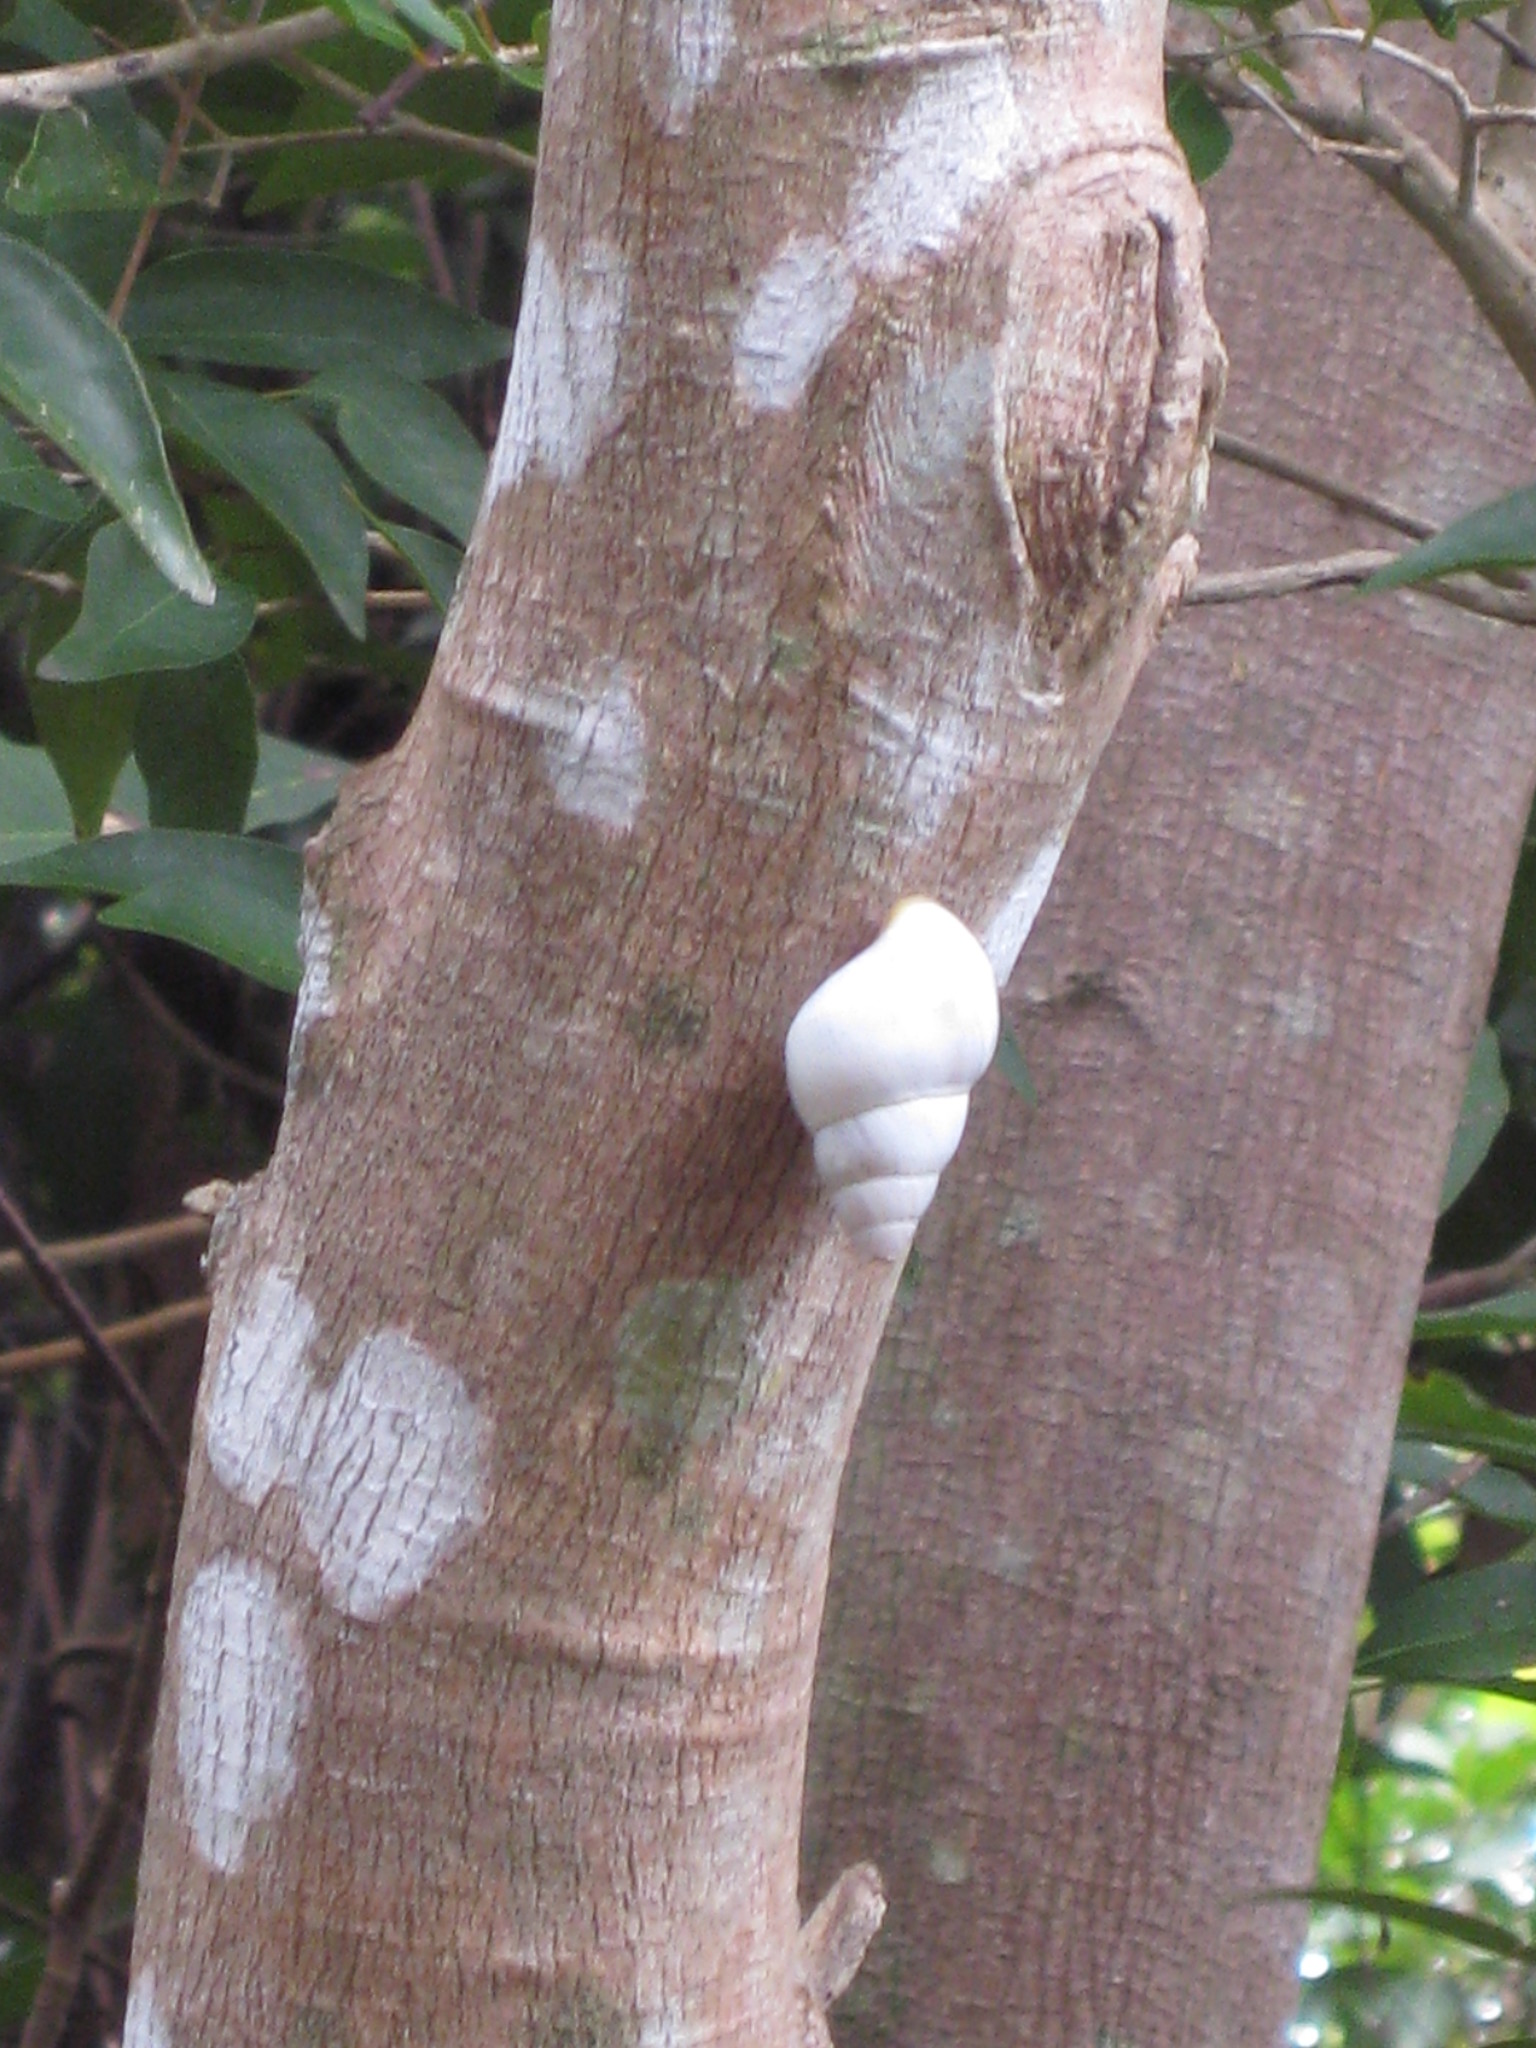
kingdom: Animalia
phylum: Mollusca
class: Gastropoda
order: Stylommatophora
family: Orthalicidae
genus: Liguus
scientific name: Liguus fasciatus
